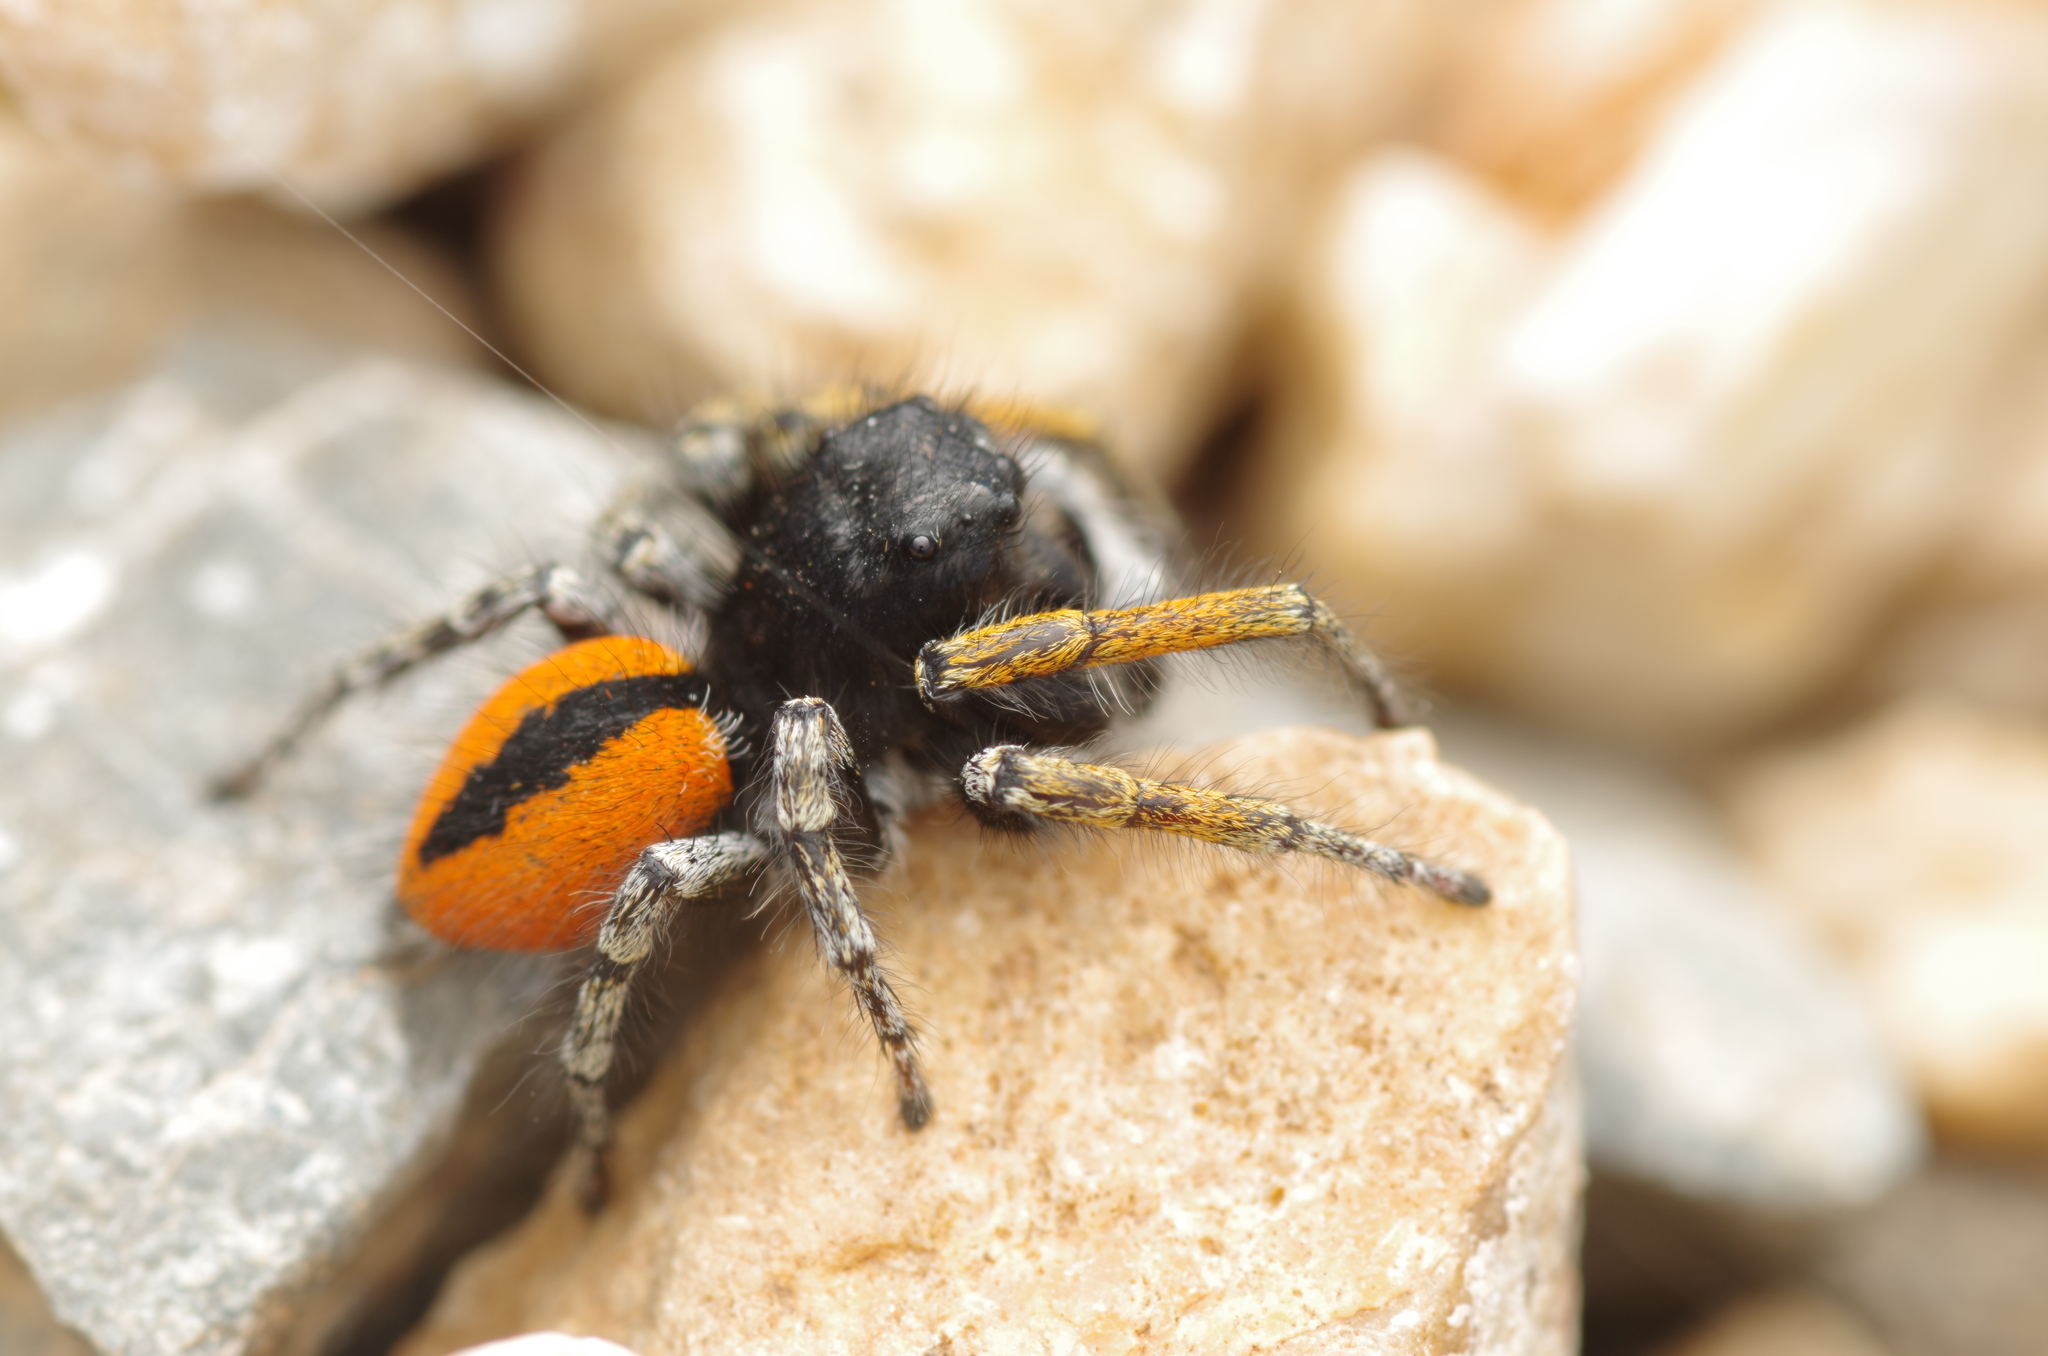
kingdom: Animalia
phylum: Arthropoda
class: Arachnida
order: Araneae
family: Salticidae
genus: Philaeus
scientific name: Philaeus chrysops
